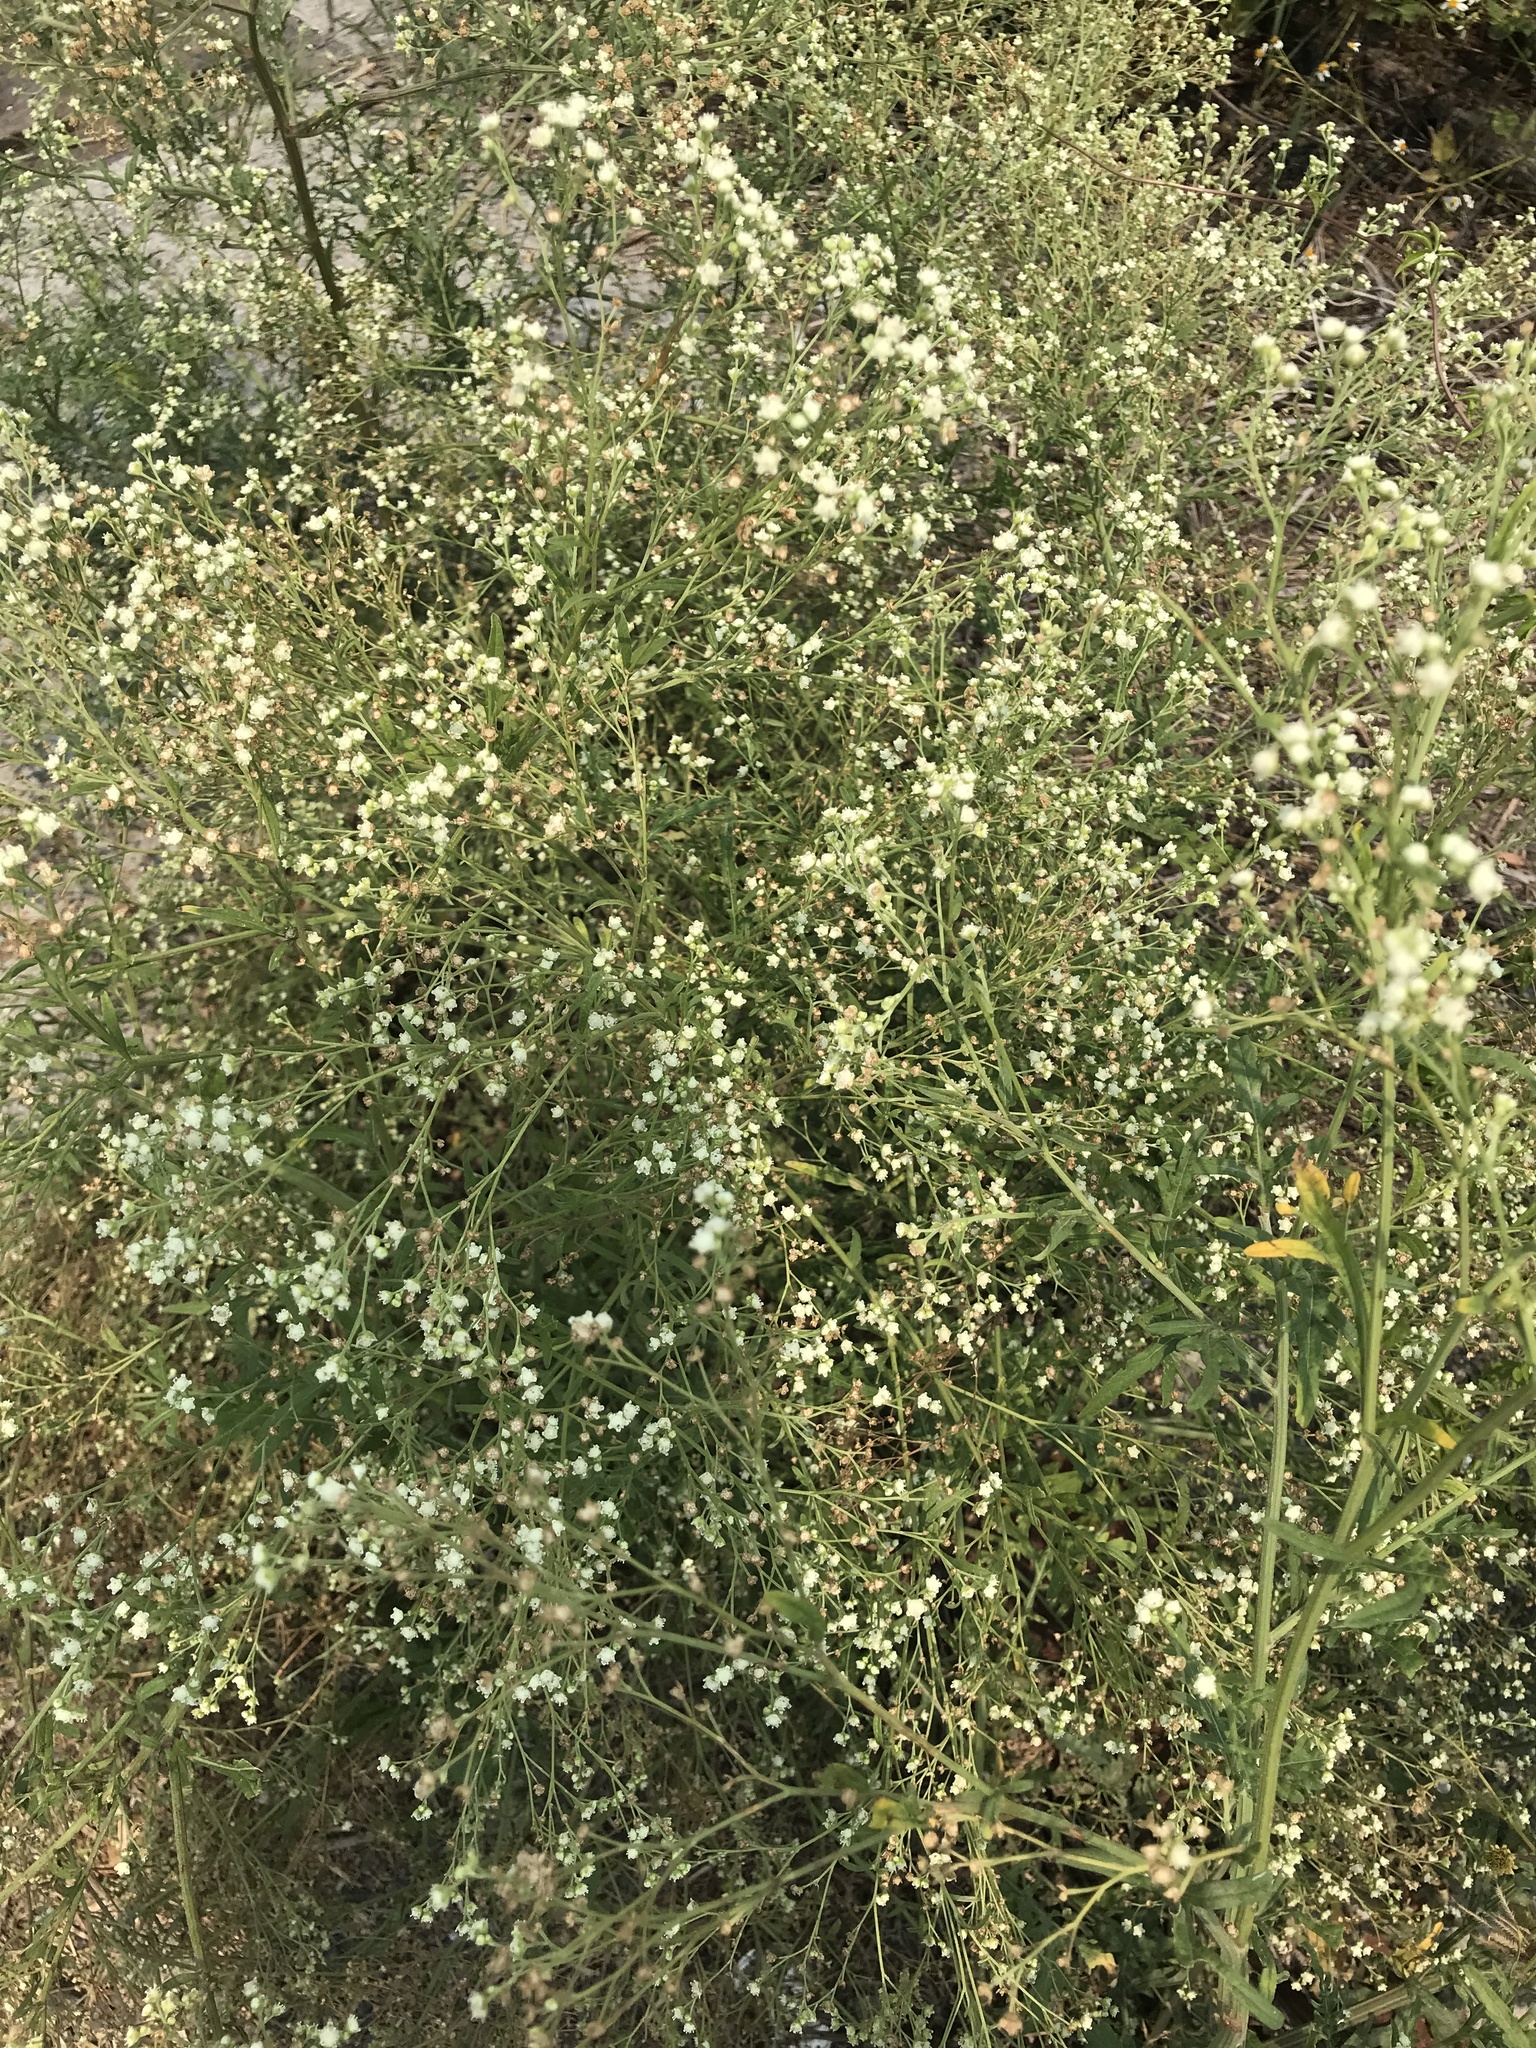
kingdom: Plantae
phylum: Tracheophyta
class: Magnoliopsida
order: Asterales
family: Asteraceae
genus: Parthenium
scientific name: Parthenium hysterophorus
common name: Santa maria feverfew
